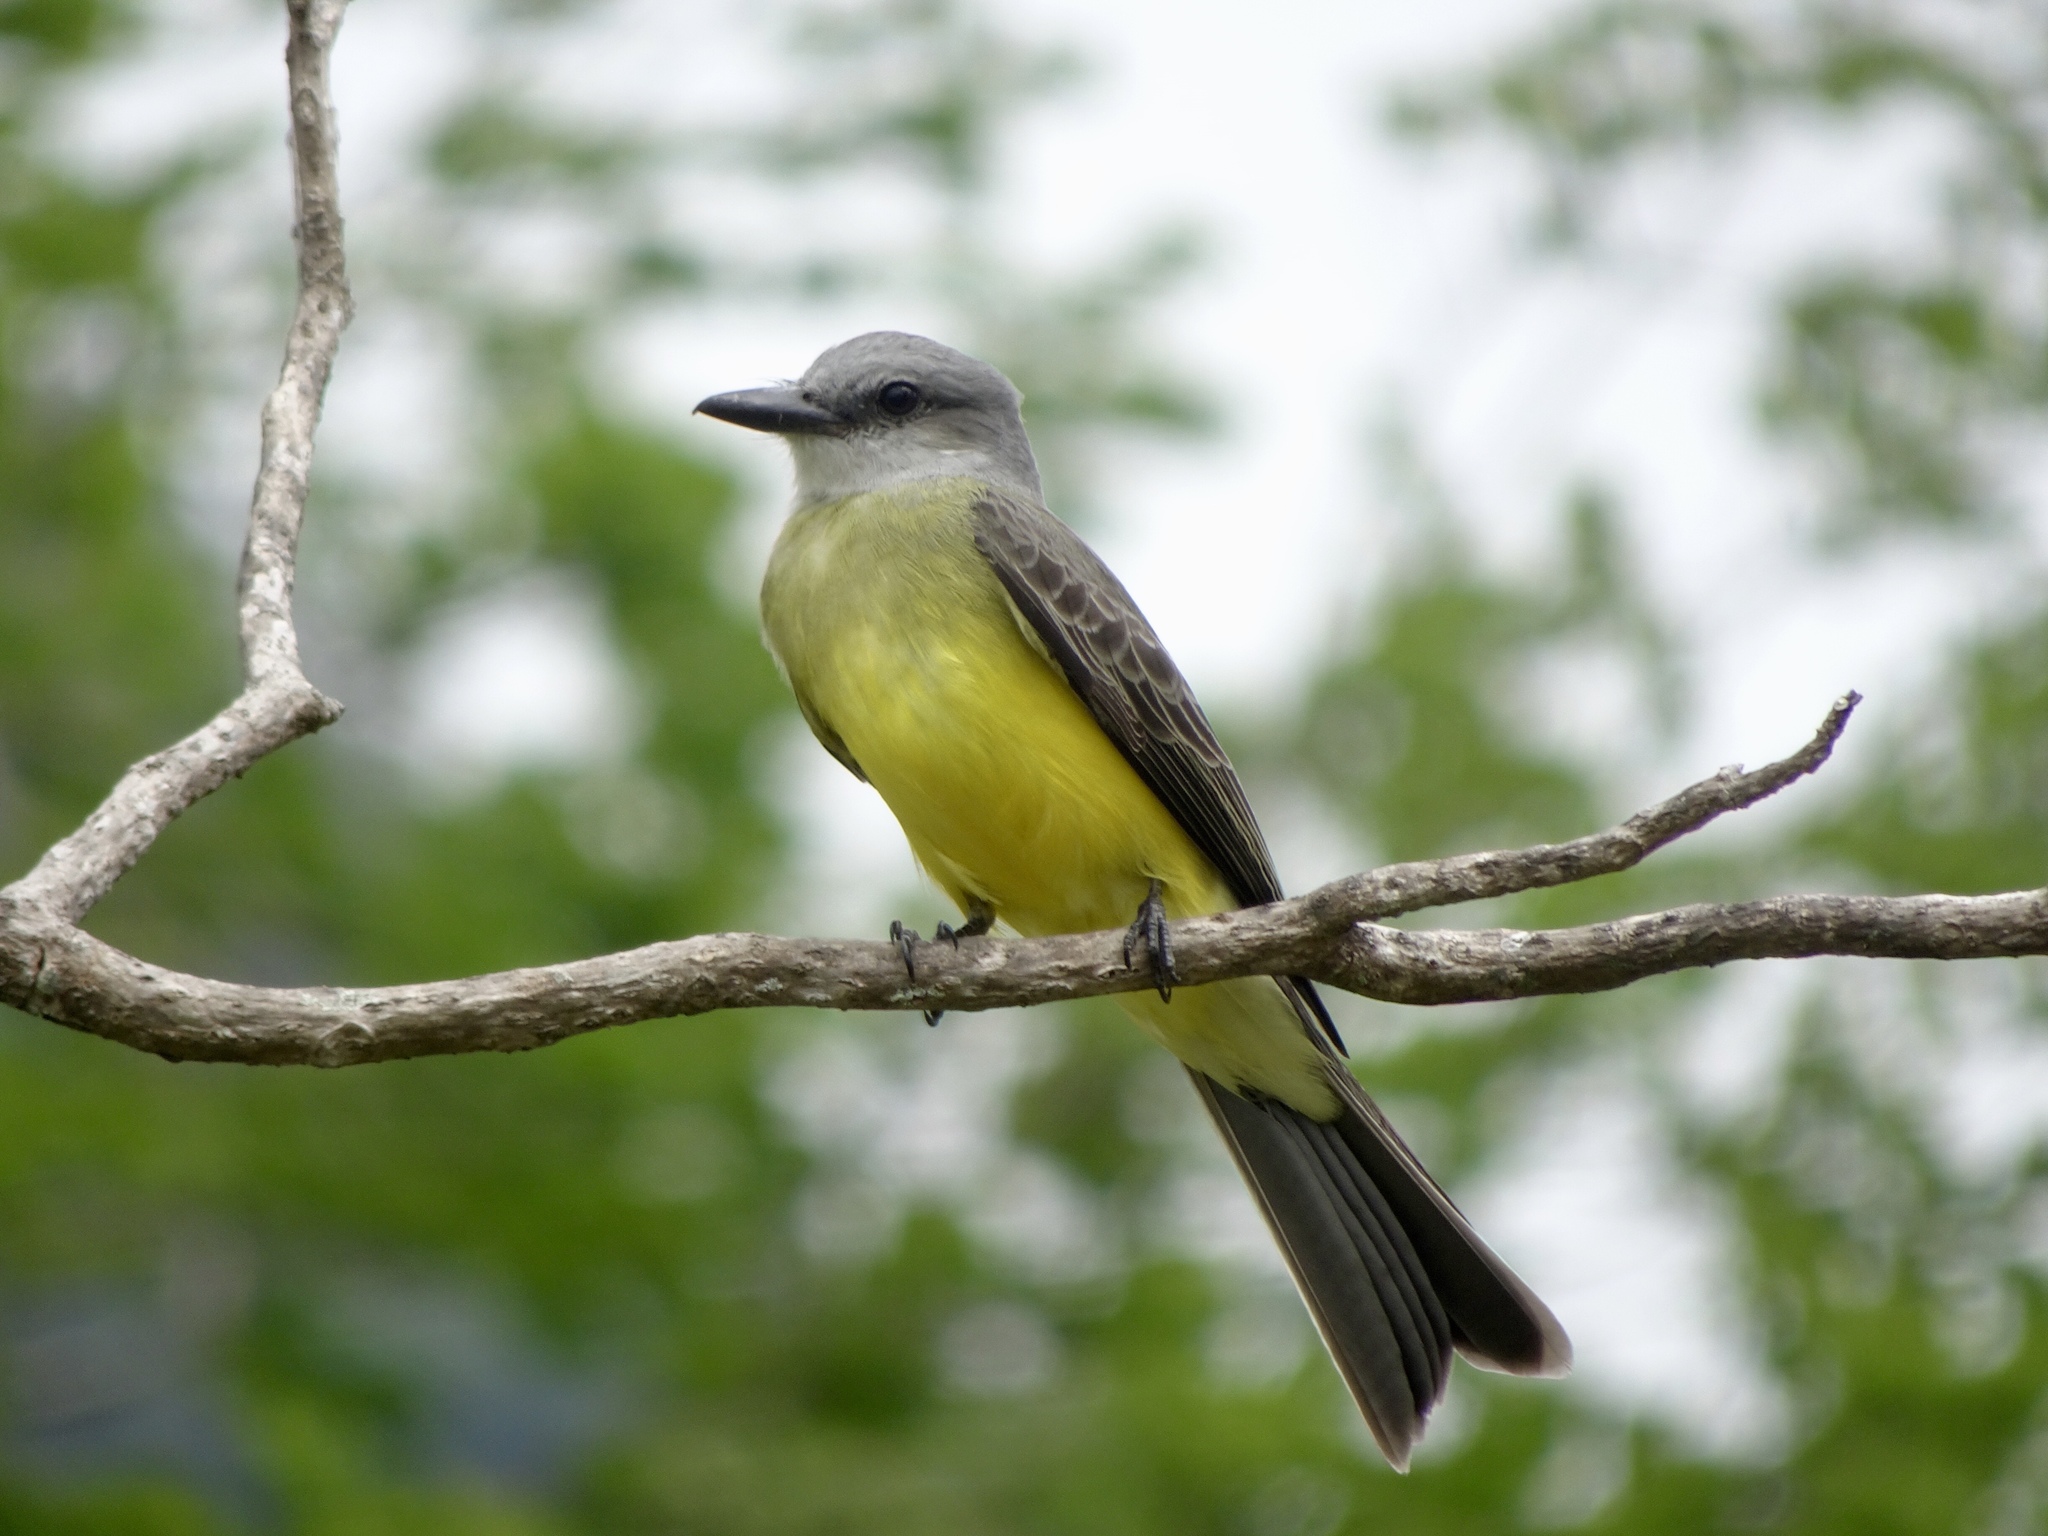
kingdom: Animalia
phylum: Chordata
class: Aves
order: Passeriformes
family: Tyrannidae
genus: Tyrannus
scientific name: Tyrannus melancholicus
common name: Tropical kingbird
